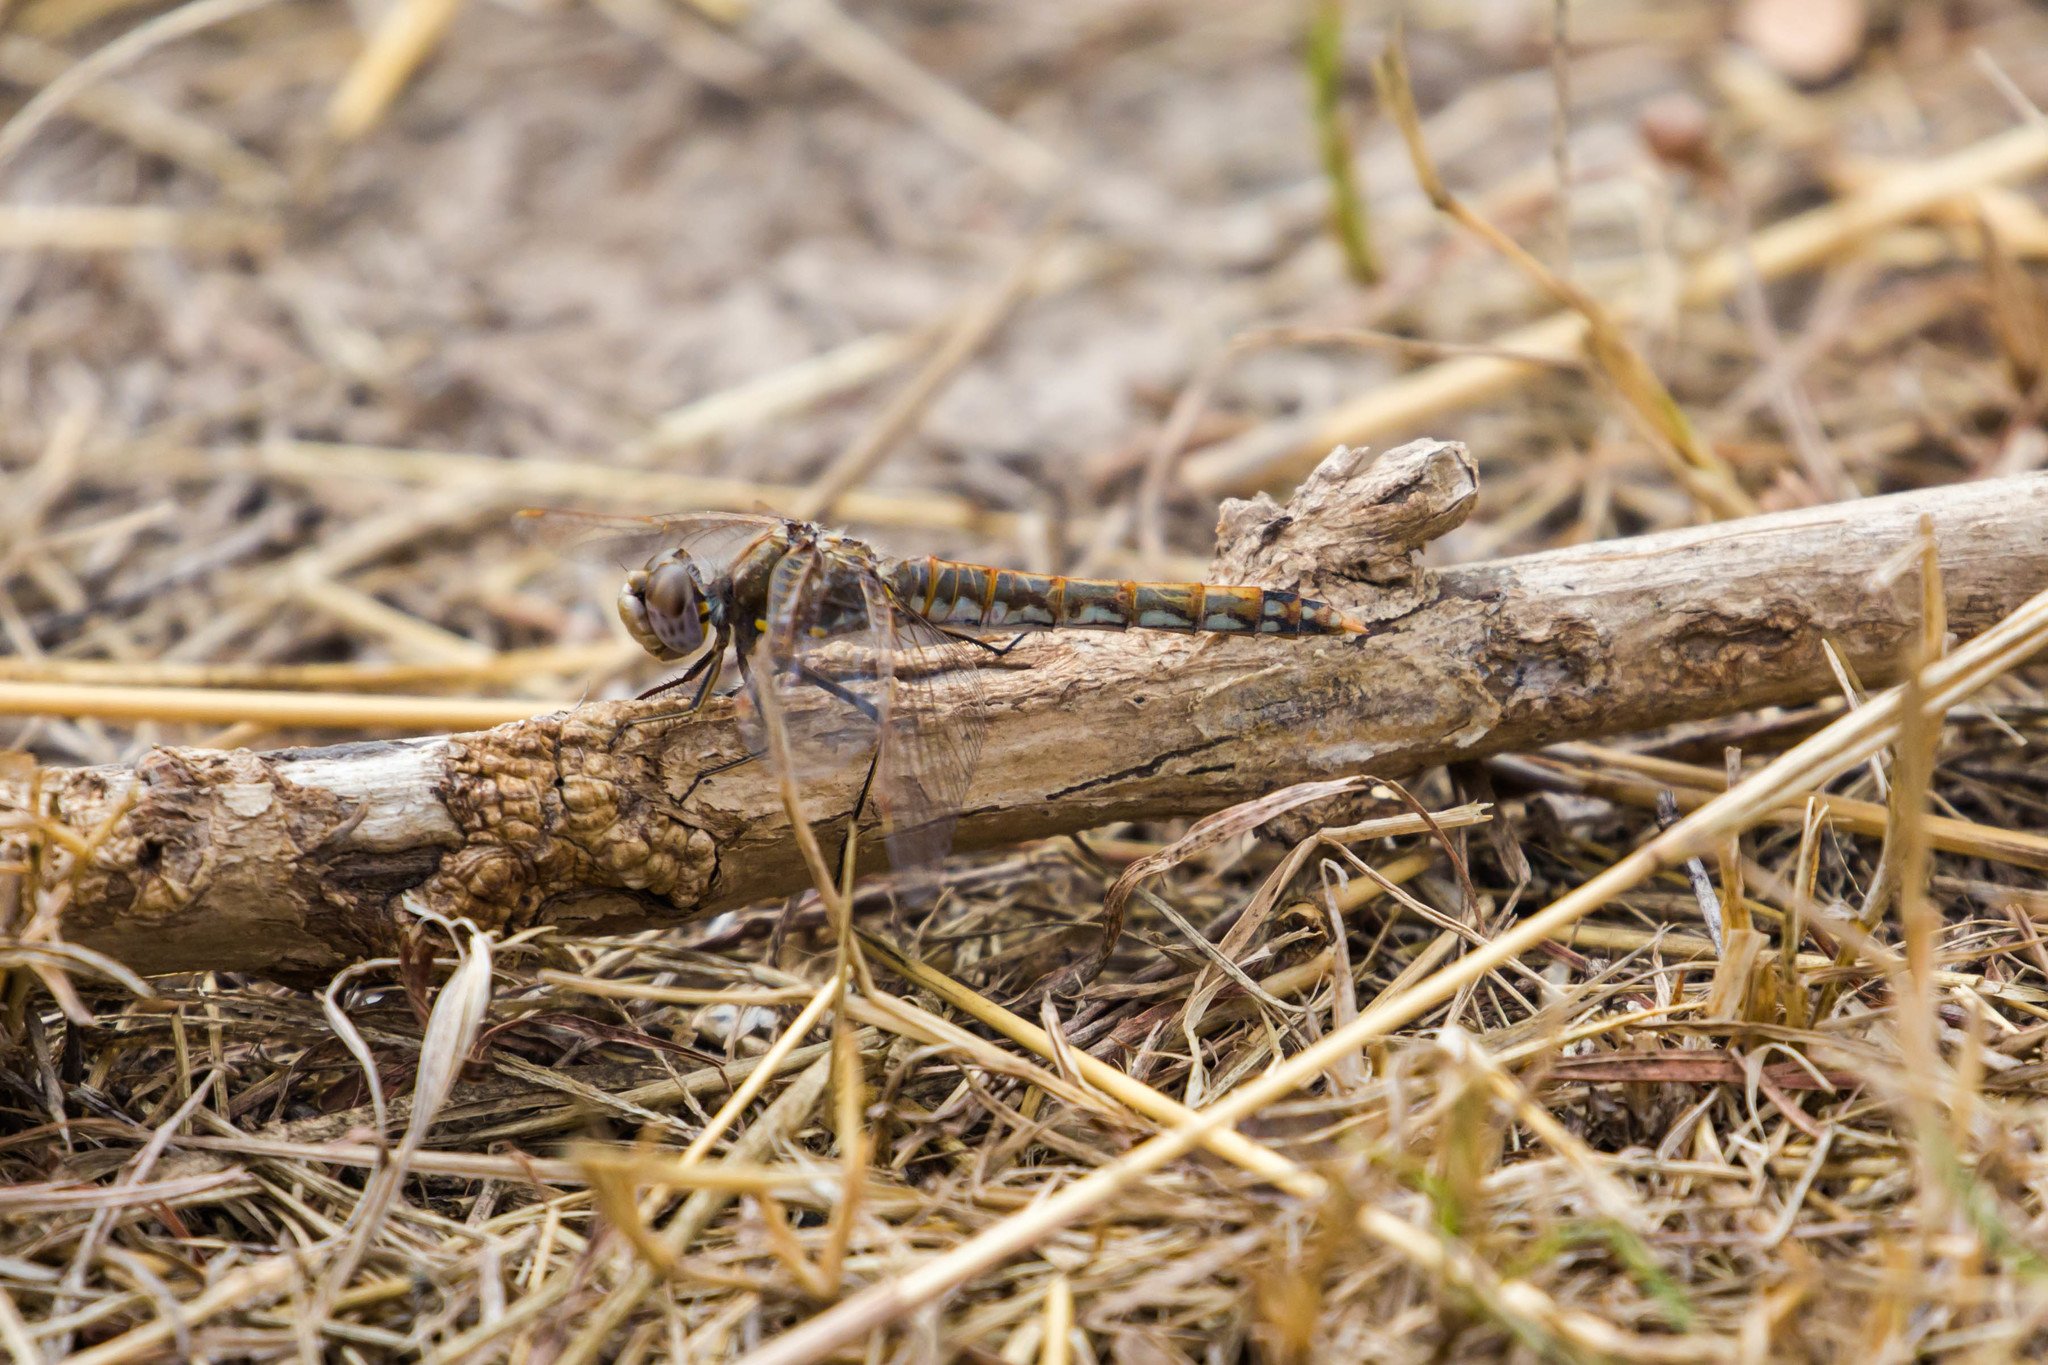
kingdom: Animalia
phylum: Arthropoda
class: Insecta
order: Odonata
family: Libellulidae
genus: Sympetrum
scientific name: Sympetrum corruptum
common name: Variegated meadowhawk
